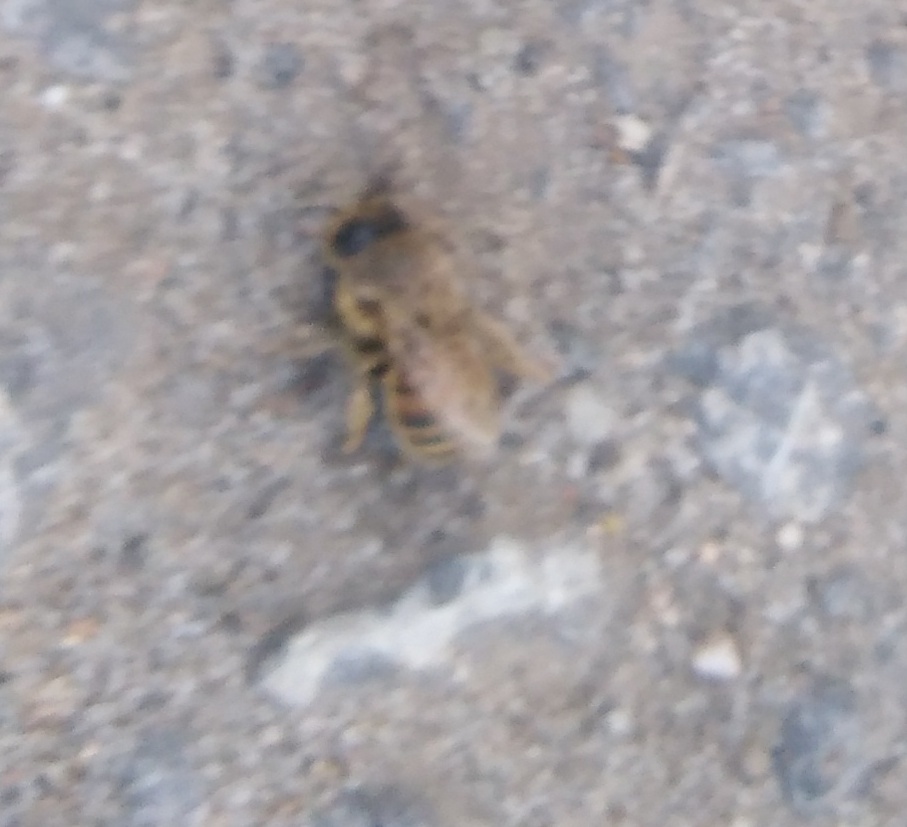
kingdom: Animalia
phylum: Arthropoda
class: Insecta
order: Hymenoptera
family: Apidae
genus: Apis
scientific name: Apis mellifera
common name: Honey bee
